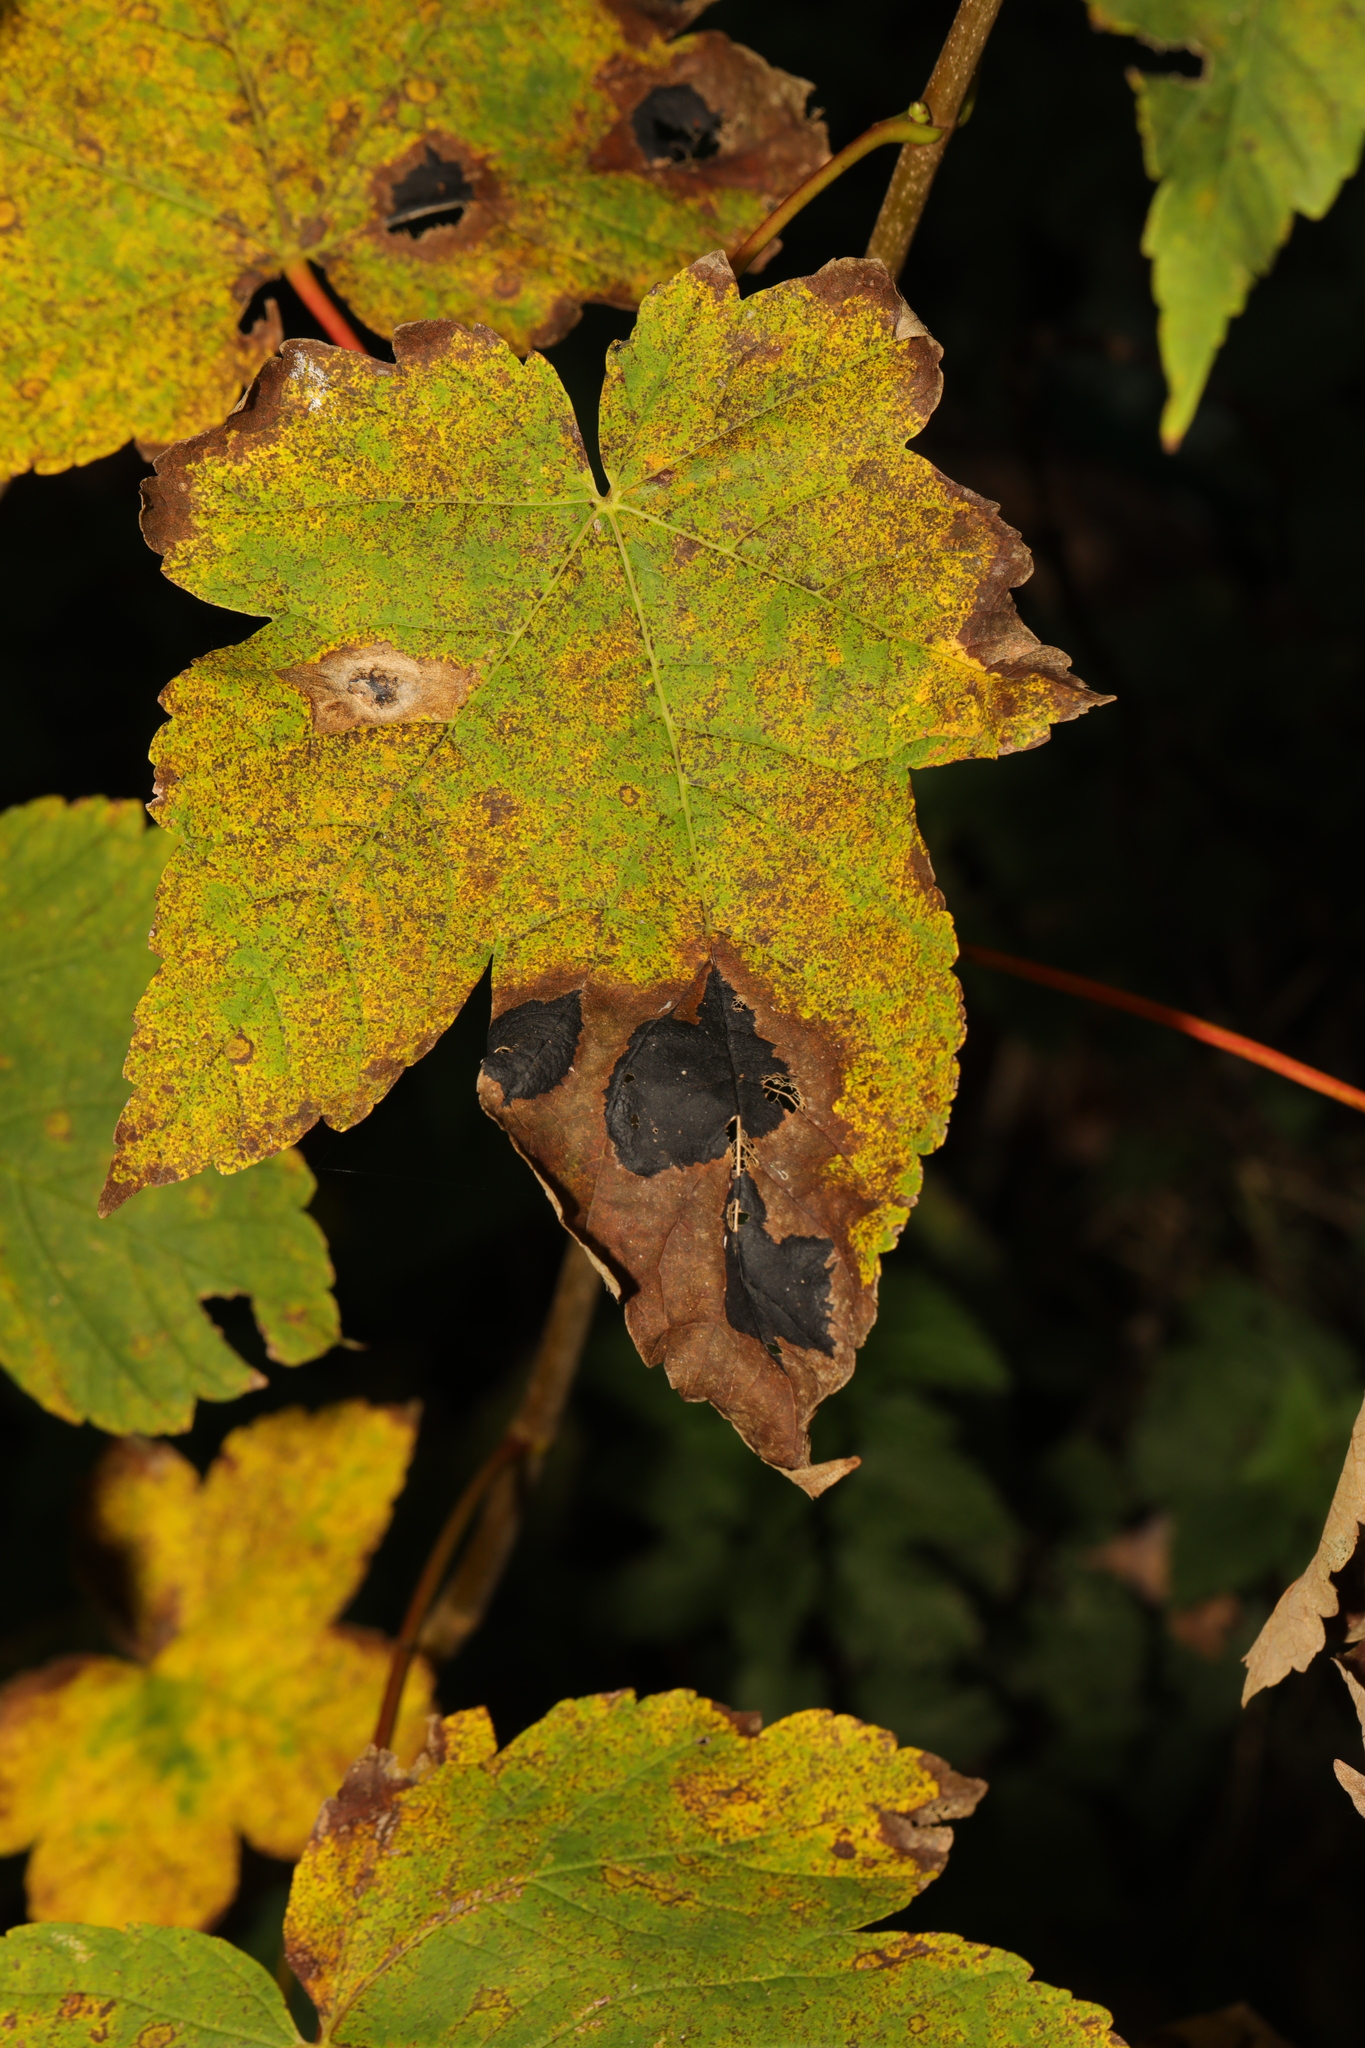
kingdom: Plantae
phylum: Tracheophyta
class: Magnoliopsida
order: Sapindales
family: Sapindaceae
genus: Acer
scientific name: Acer pseudoplatanus
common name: Sycamore
